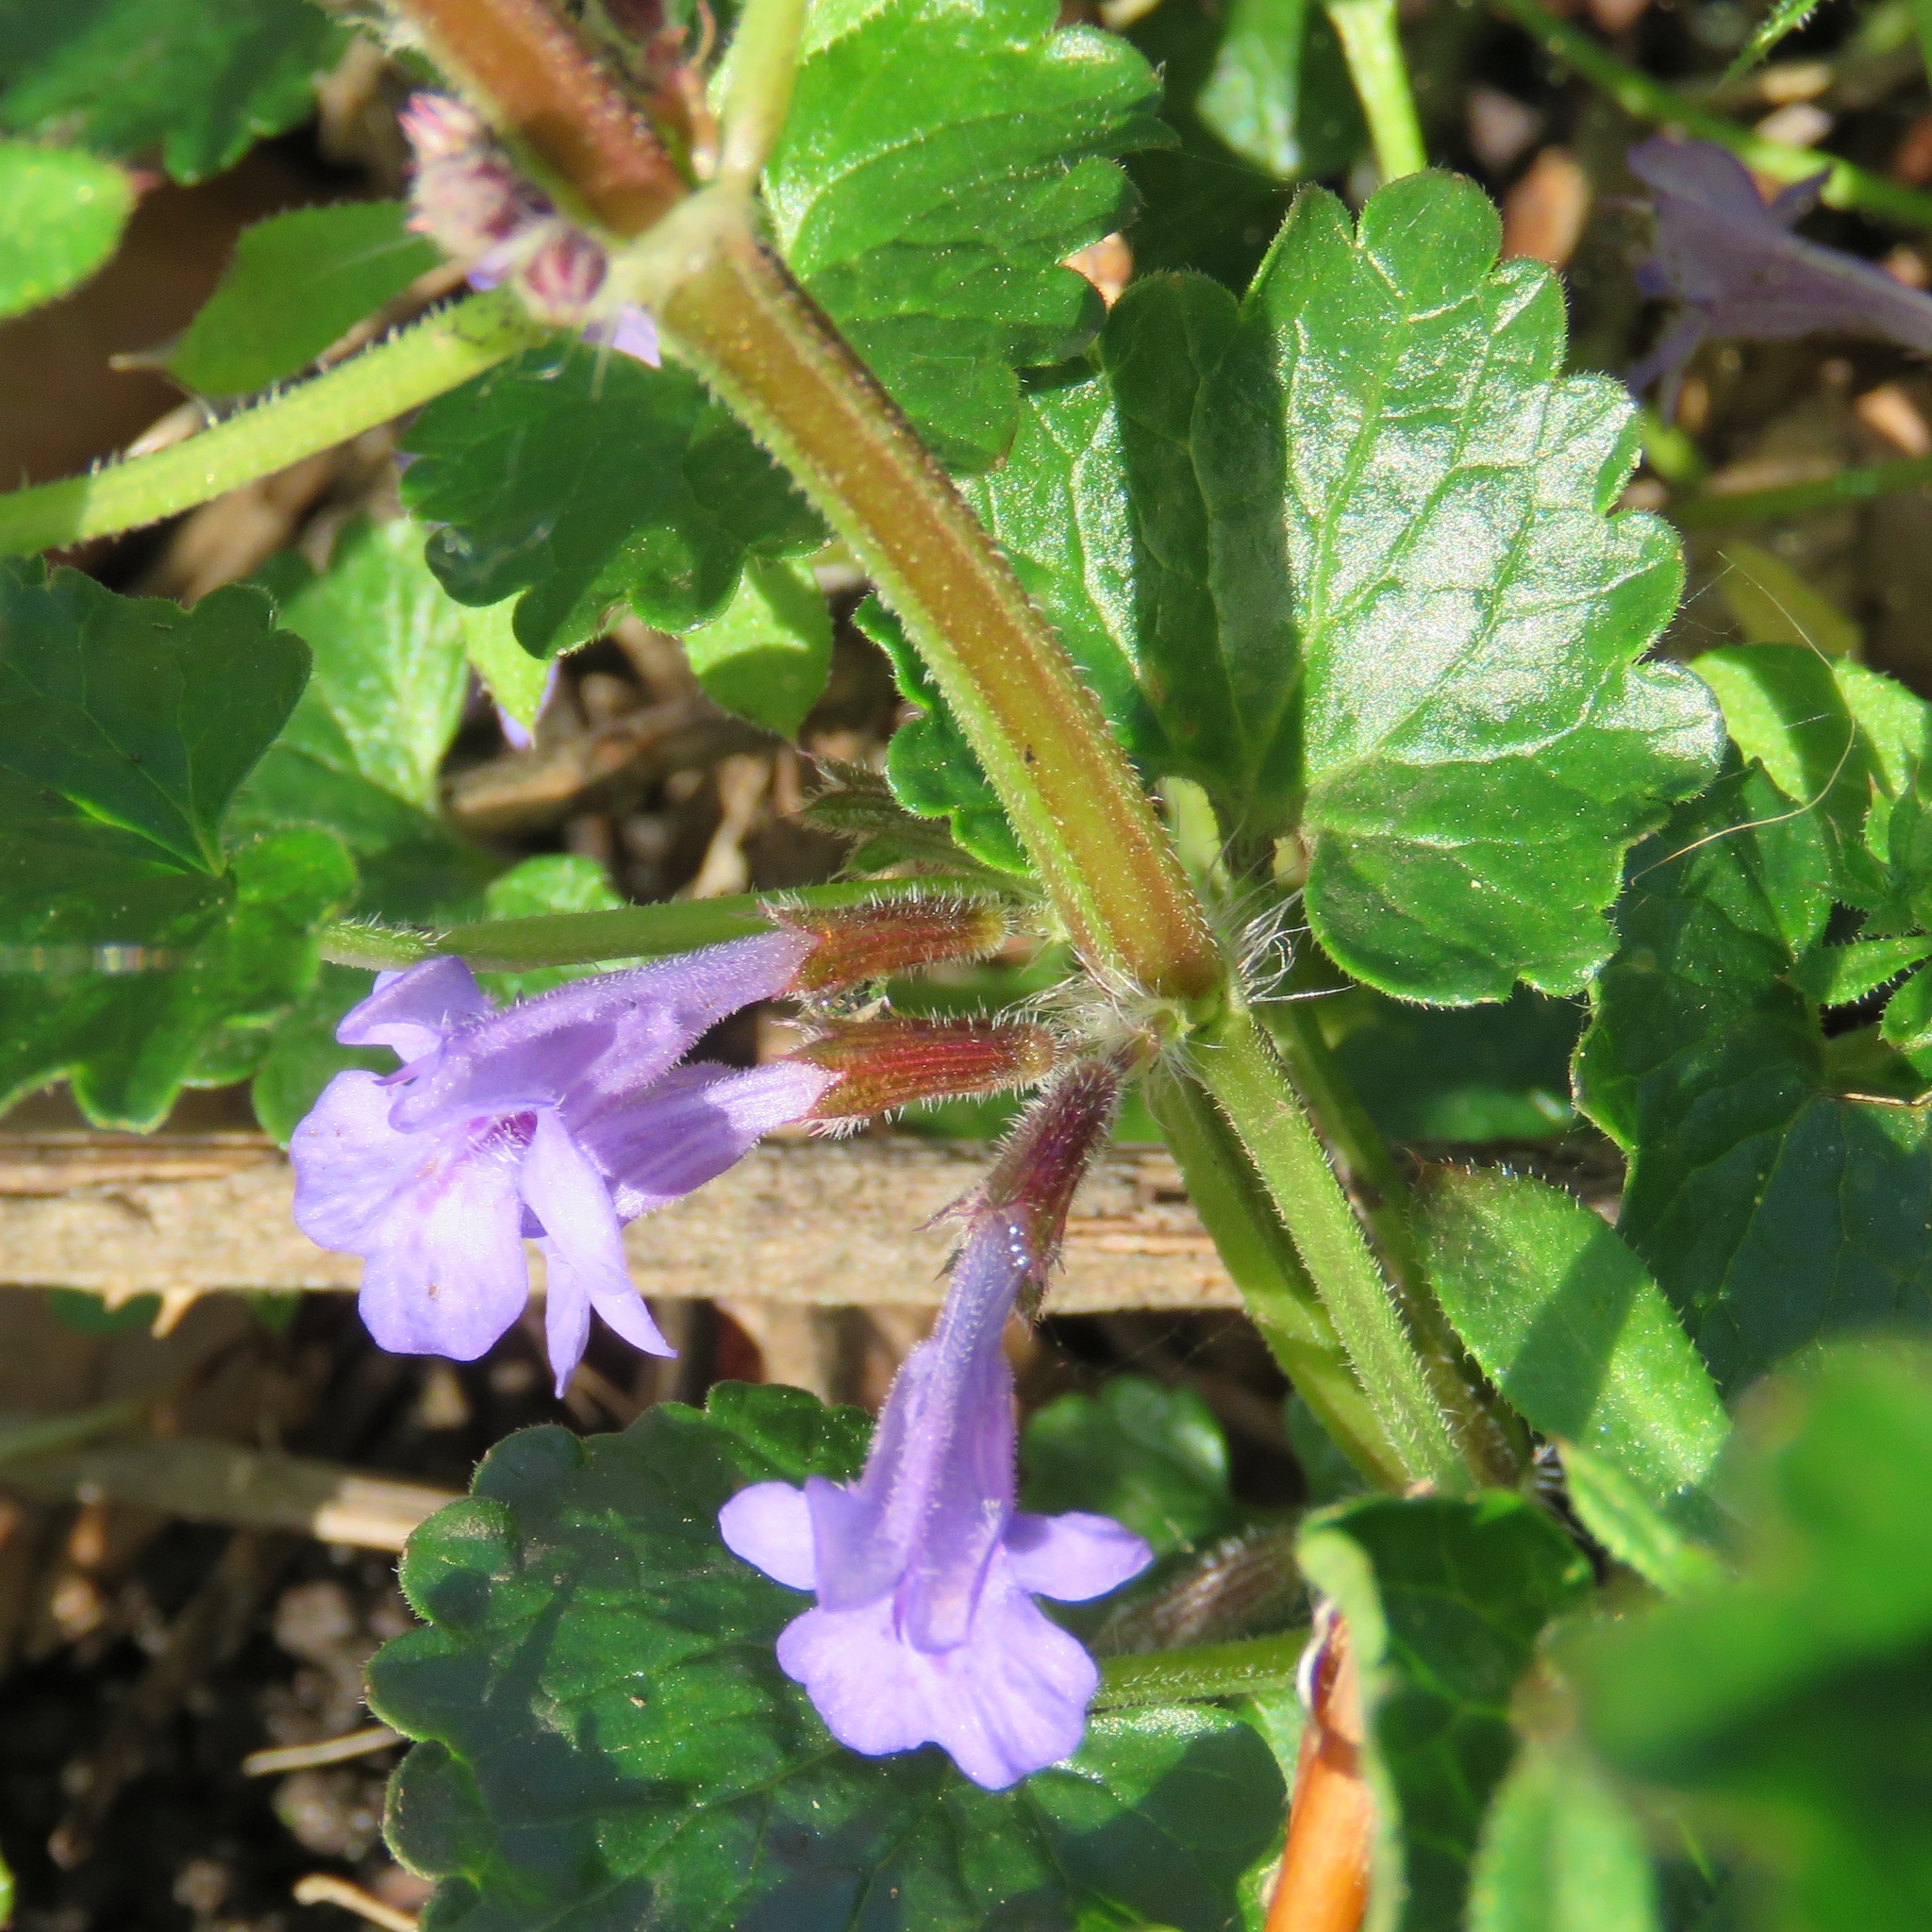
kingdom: Plantae
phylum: Tracheophyta
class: Magnoliopsida
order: Lamiales
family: Lamiaceae
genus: Glechoma
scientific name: Glechoma hederacea
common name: Ground ivy
